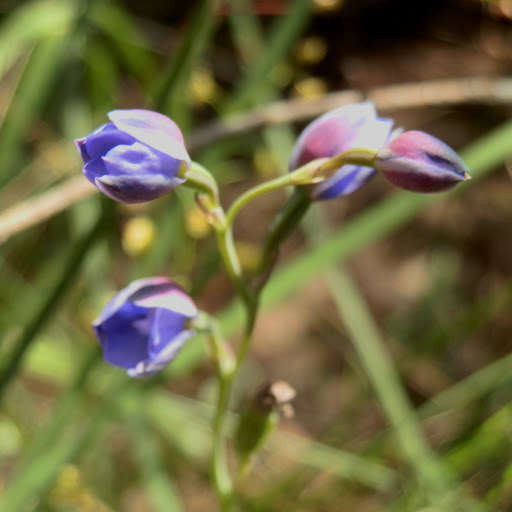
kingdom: Plantae
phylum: Tracheophyta
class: Liliopsida
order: Asparagales
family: Orchidaceae
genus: Thelymitra
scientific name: Thelymitra ixioides
